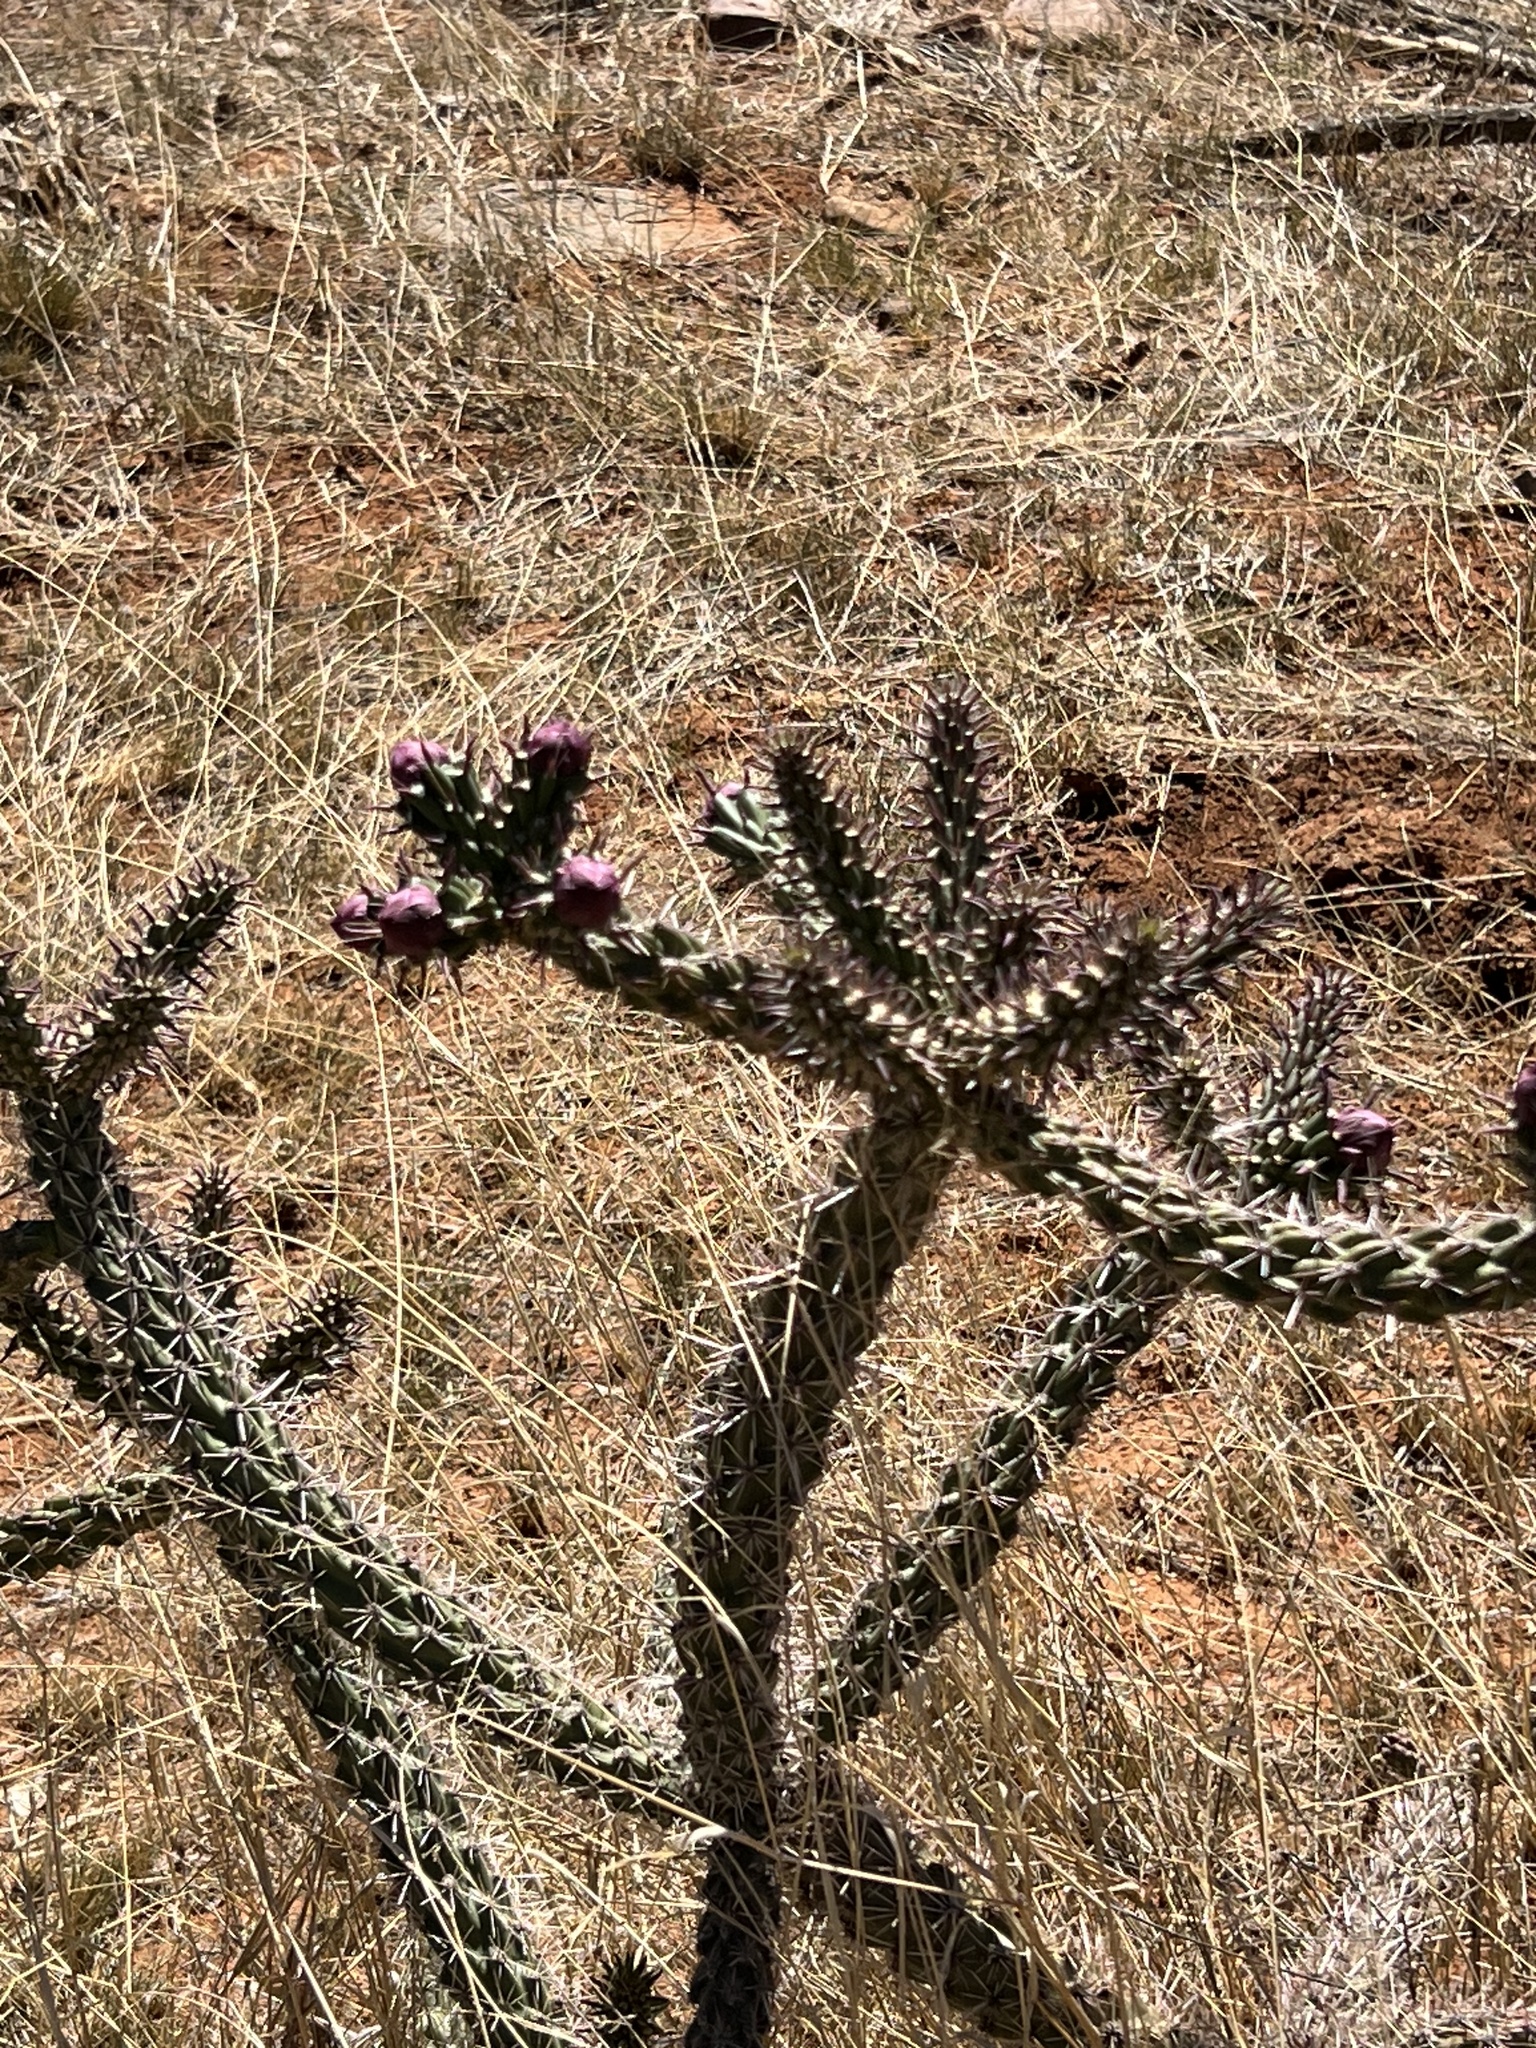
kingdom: Plantae
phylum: Tracheophyta
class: Magnoliopsida
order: Caryophyllales
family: Cactaceae
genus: Cylindropuntia
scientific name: Cylindropuntia imbricata
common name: Candelabrum cactus
